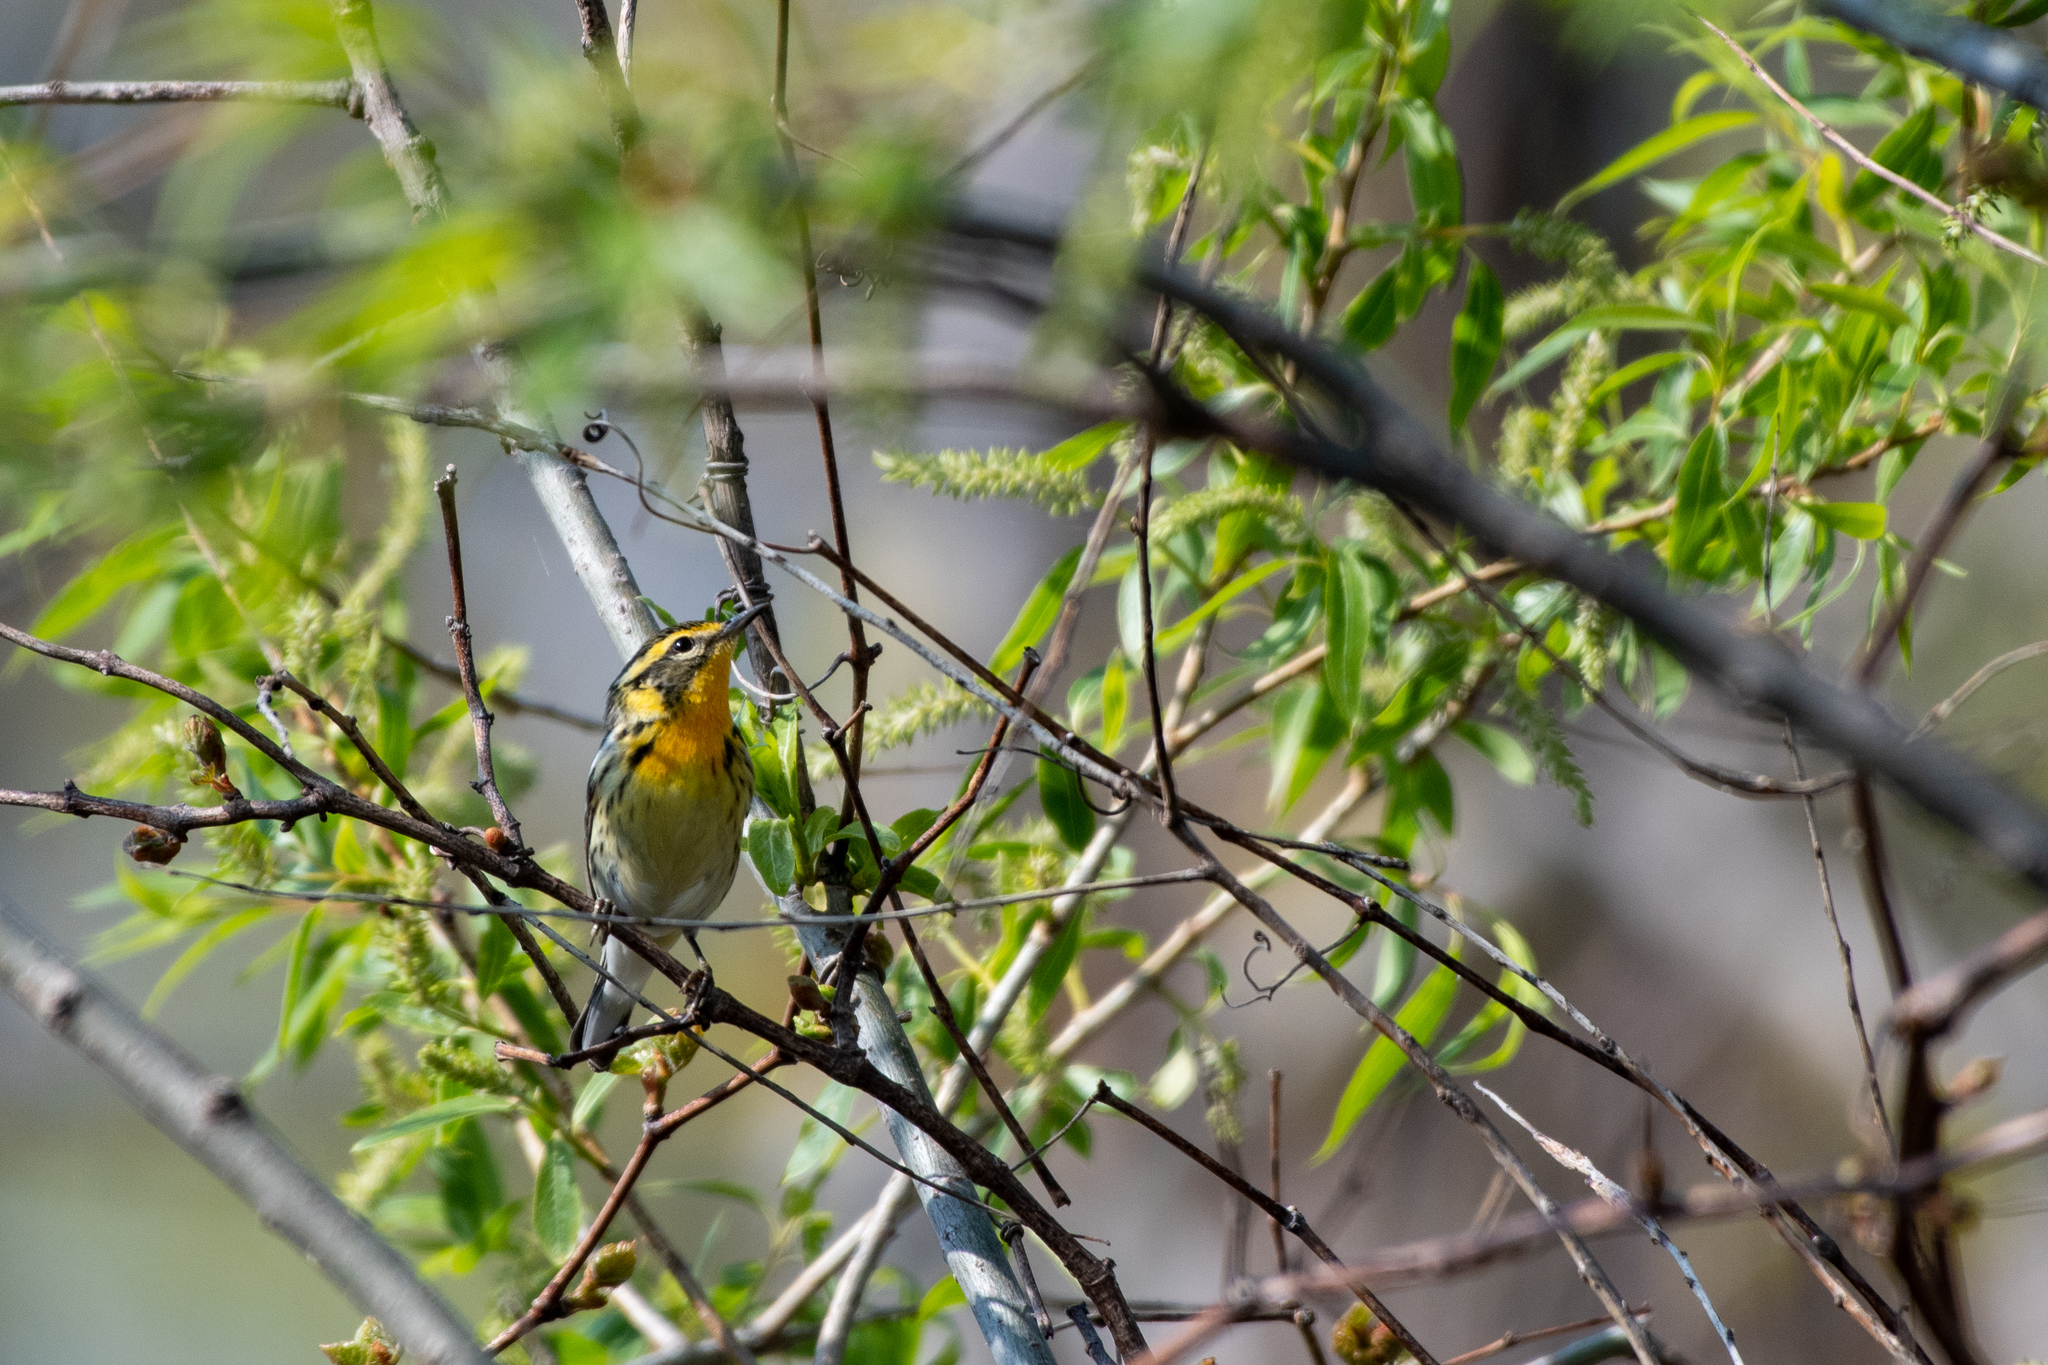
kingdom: Animalia
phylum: Chordata
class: Aves
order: Passeriformes
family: Parulidae
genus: Setophaga
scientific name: Setophaga fusca
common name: Blackburnian warbler
